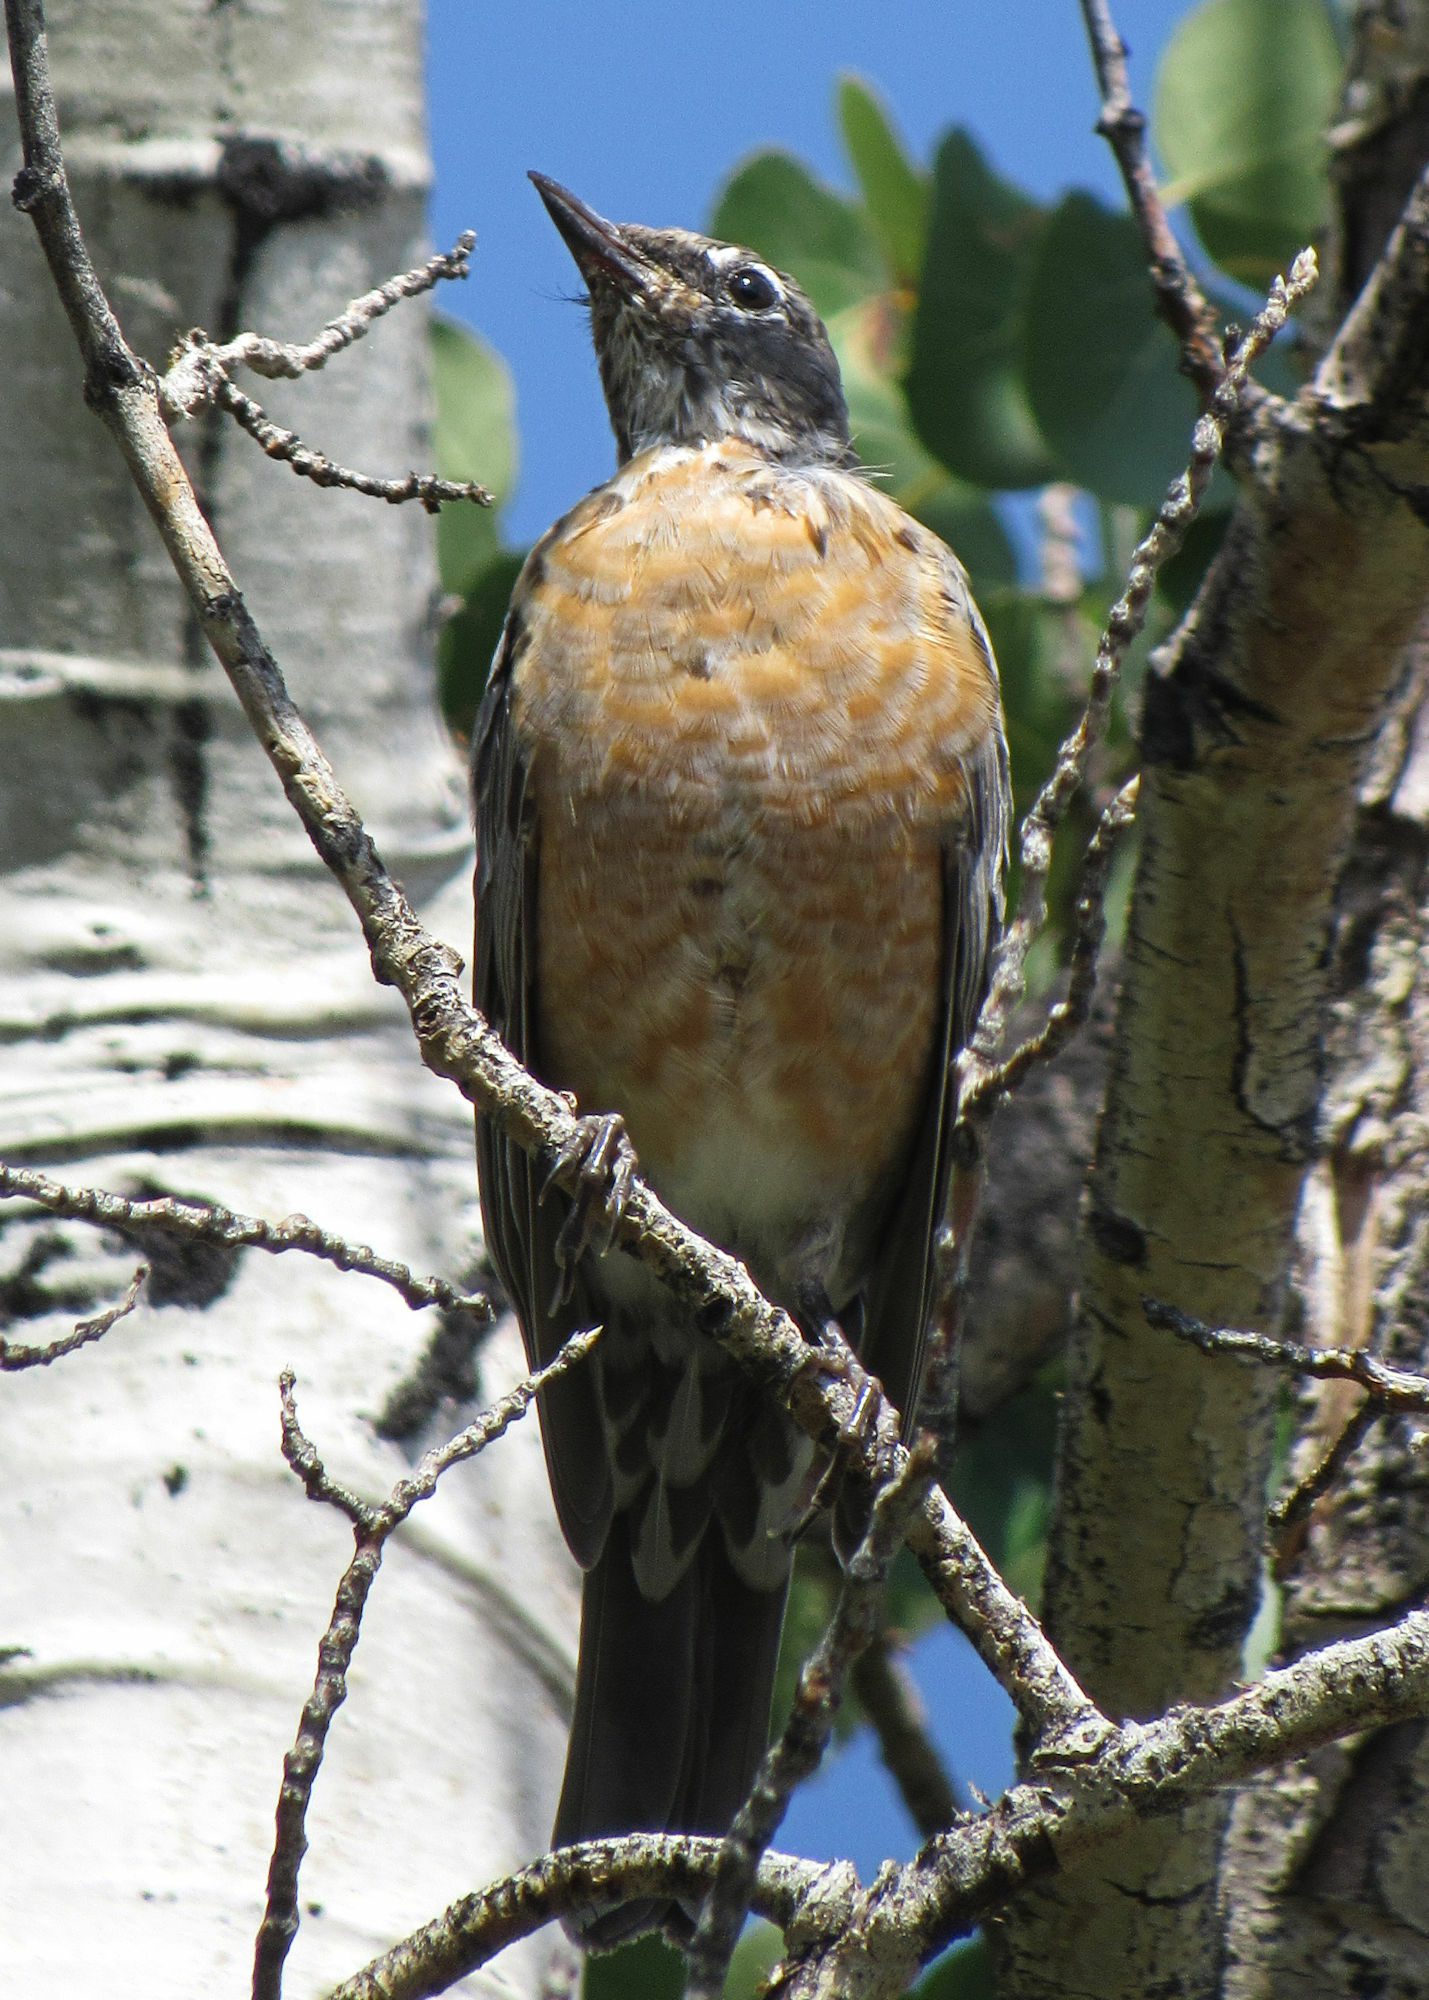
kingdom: Animalia
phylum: Chordata
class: Aves
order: Passeriformes
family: Turdidae
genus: Turdus
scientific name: Turdus migratorius
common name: American robin
